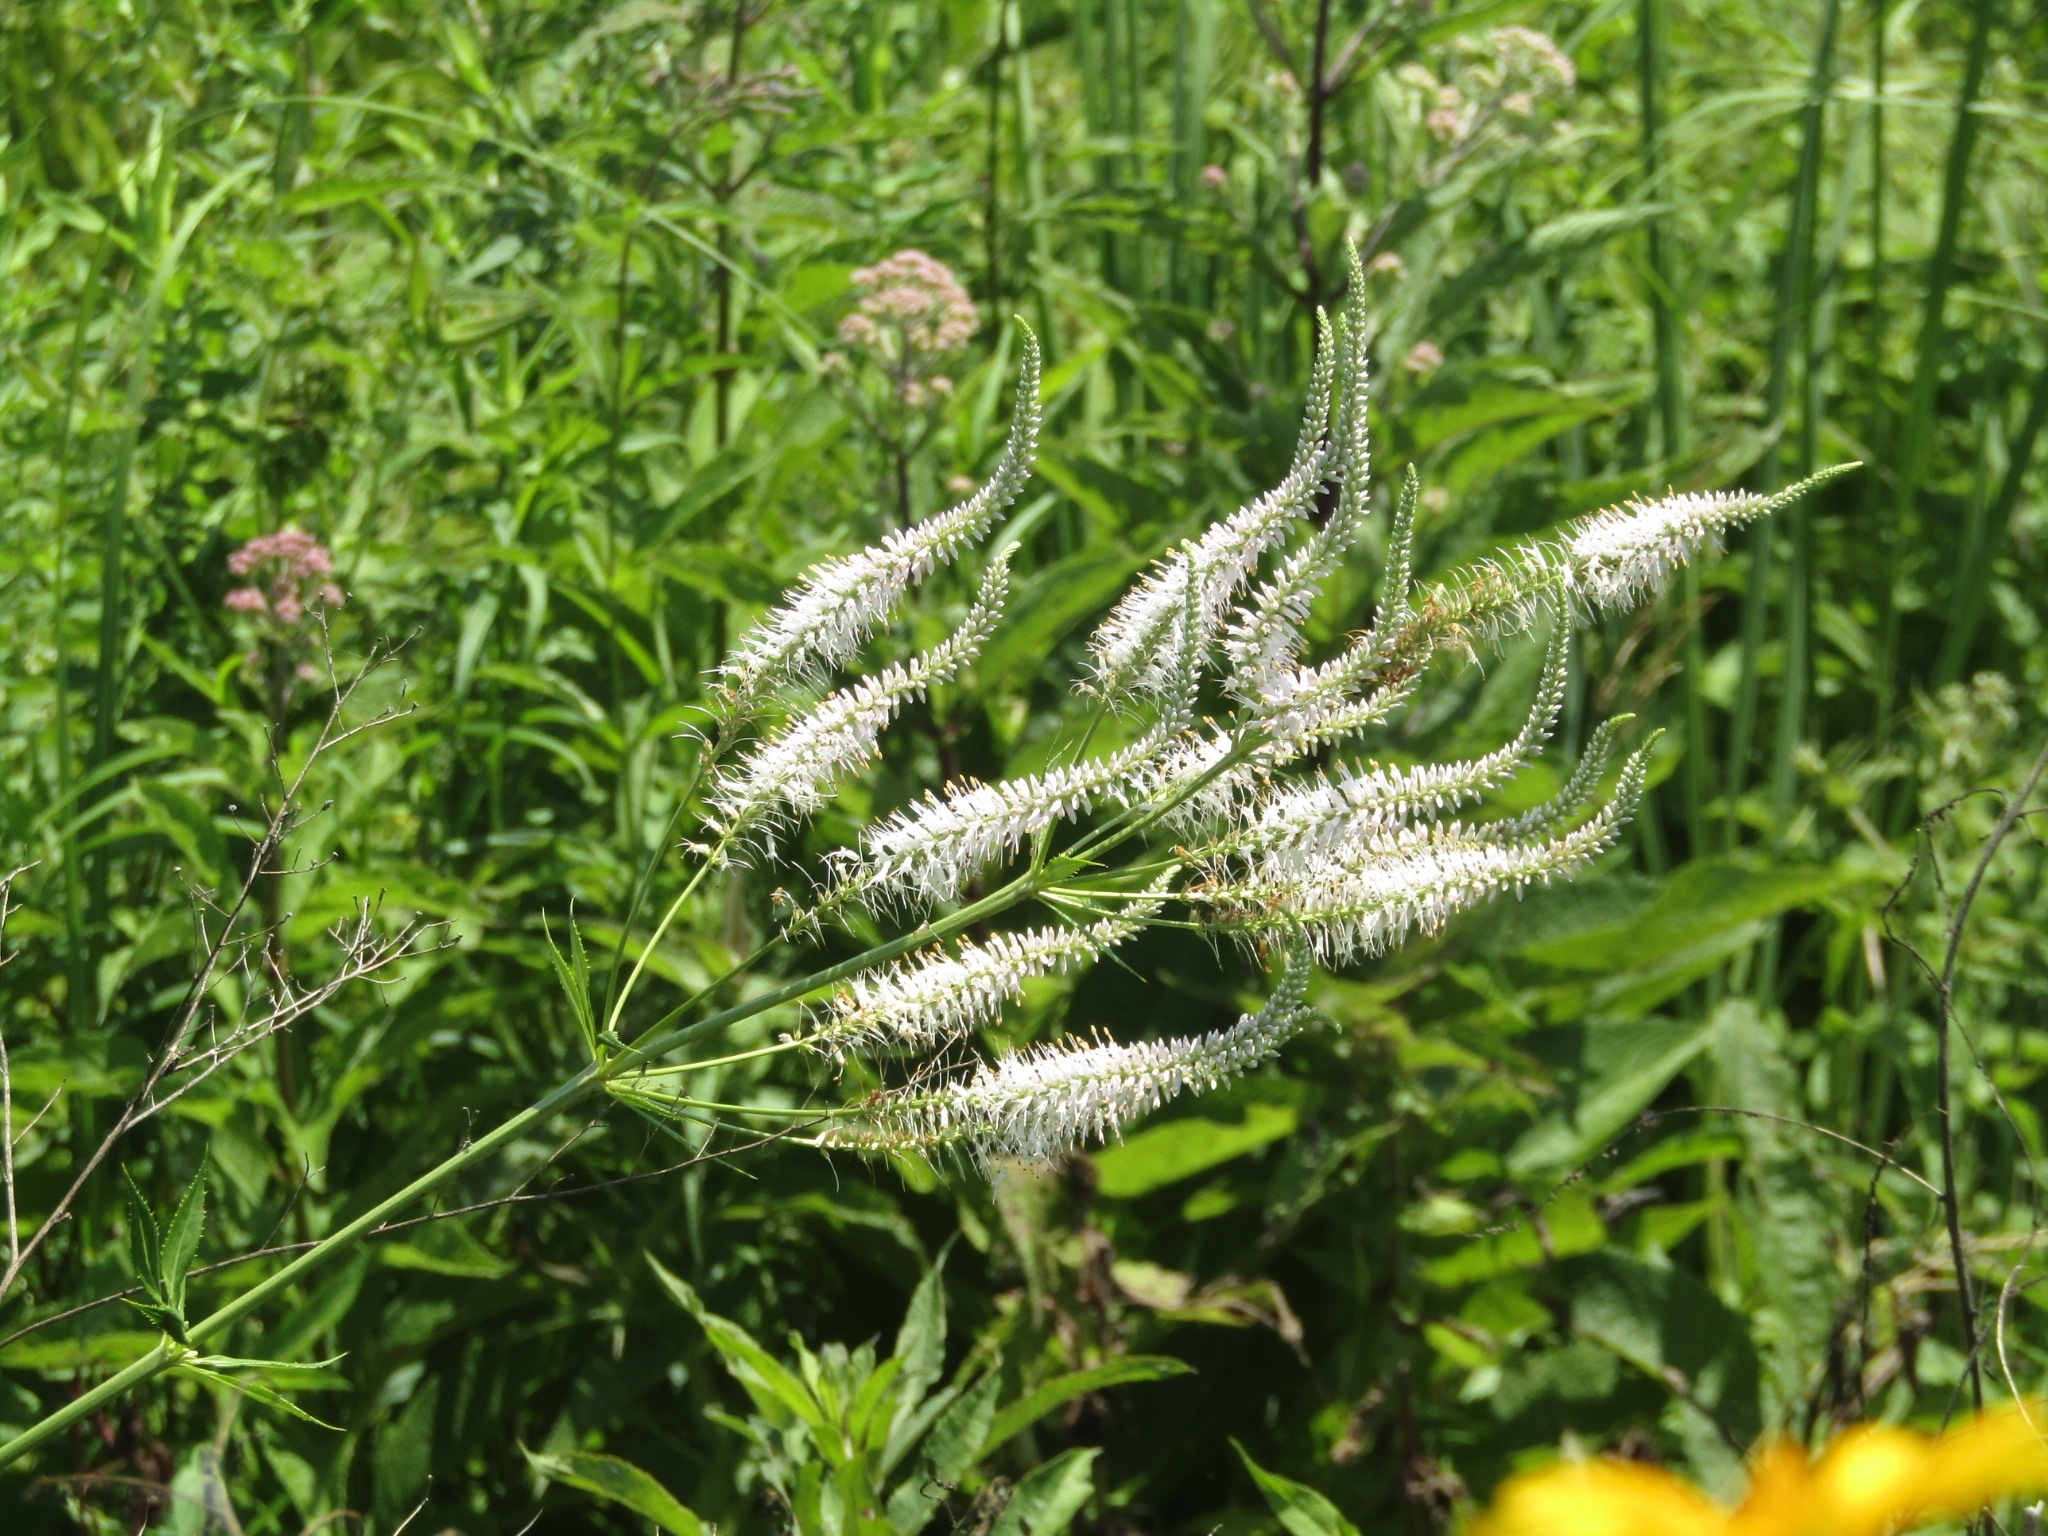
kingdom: Plantae
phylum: Tracheophyta
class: Magnoliopsida
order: Lamiales
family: Plantaginaceae
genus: Veronicastrum
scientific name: Veronicastrum virginicum
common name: Blackroot
